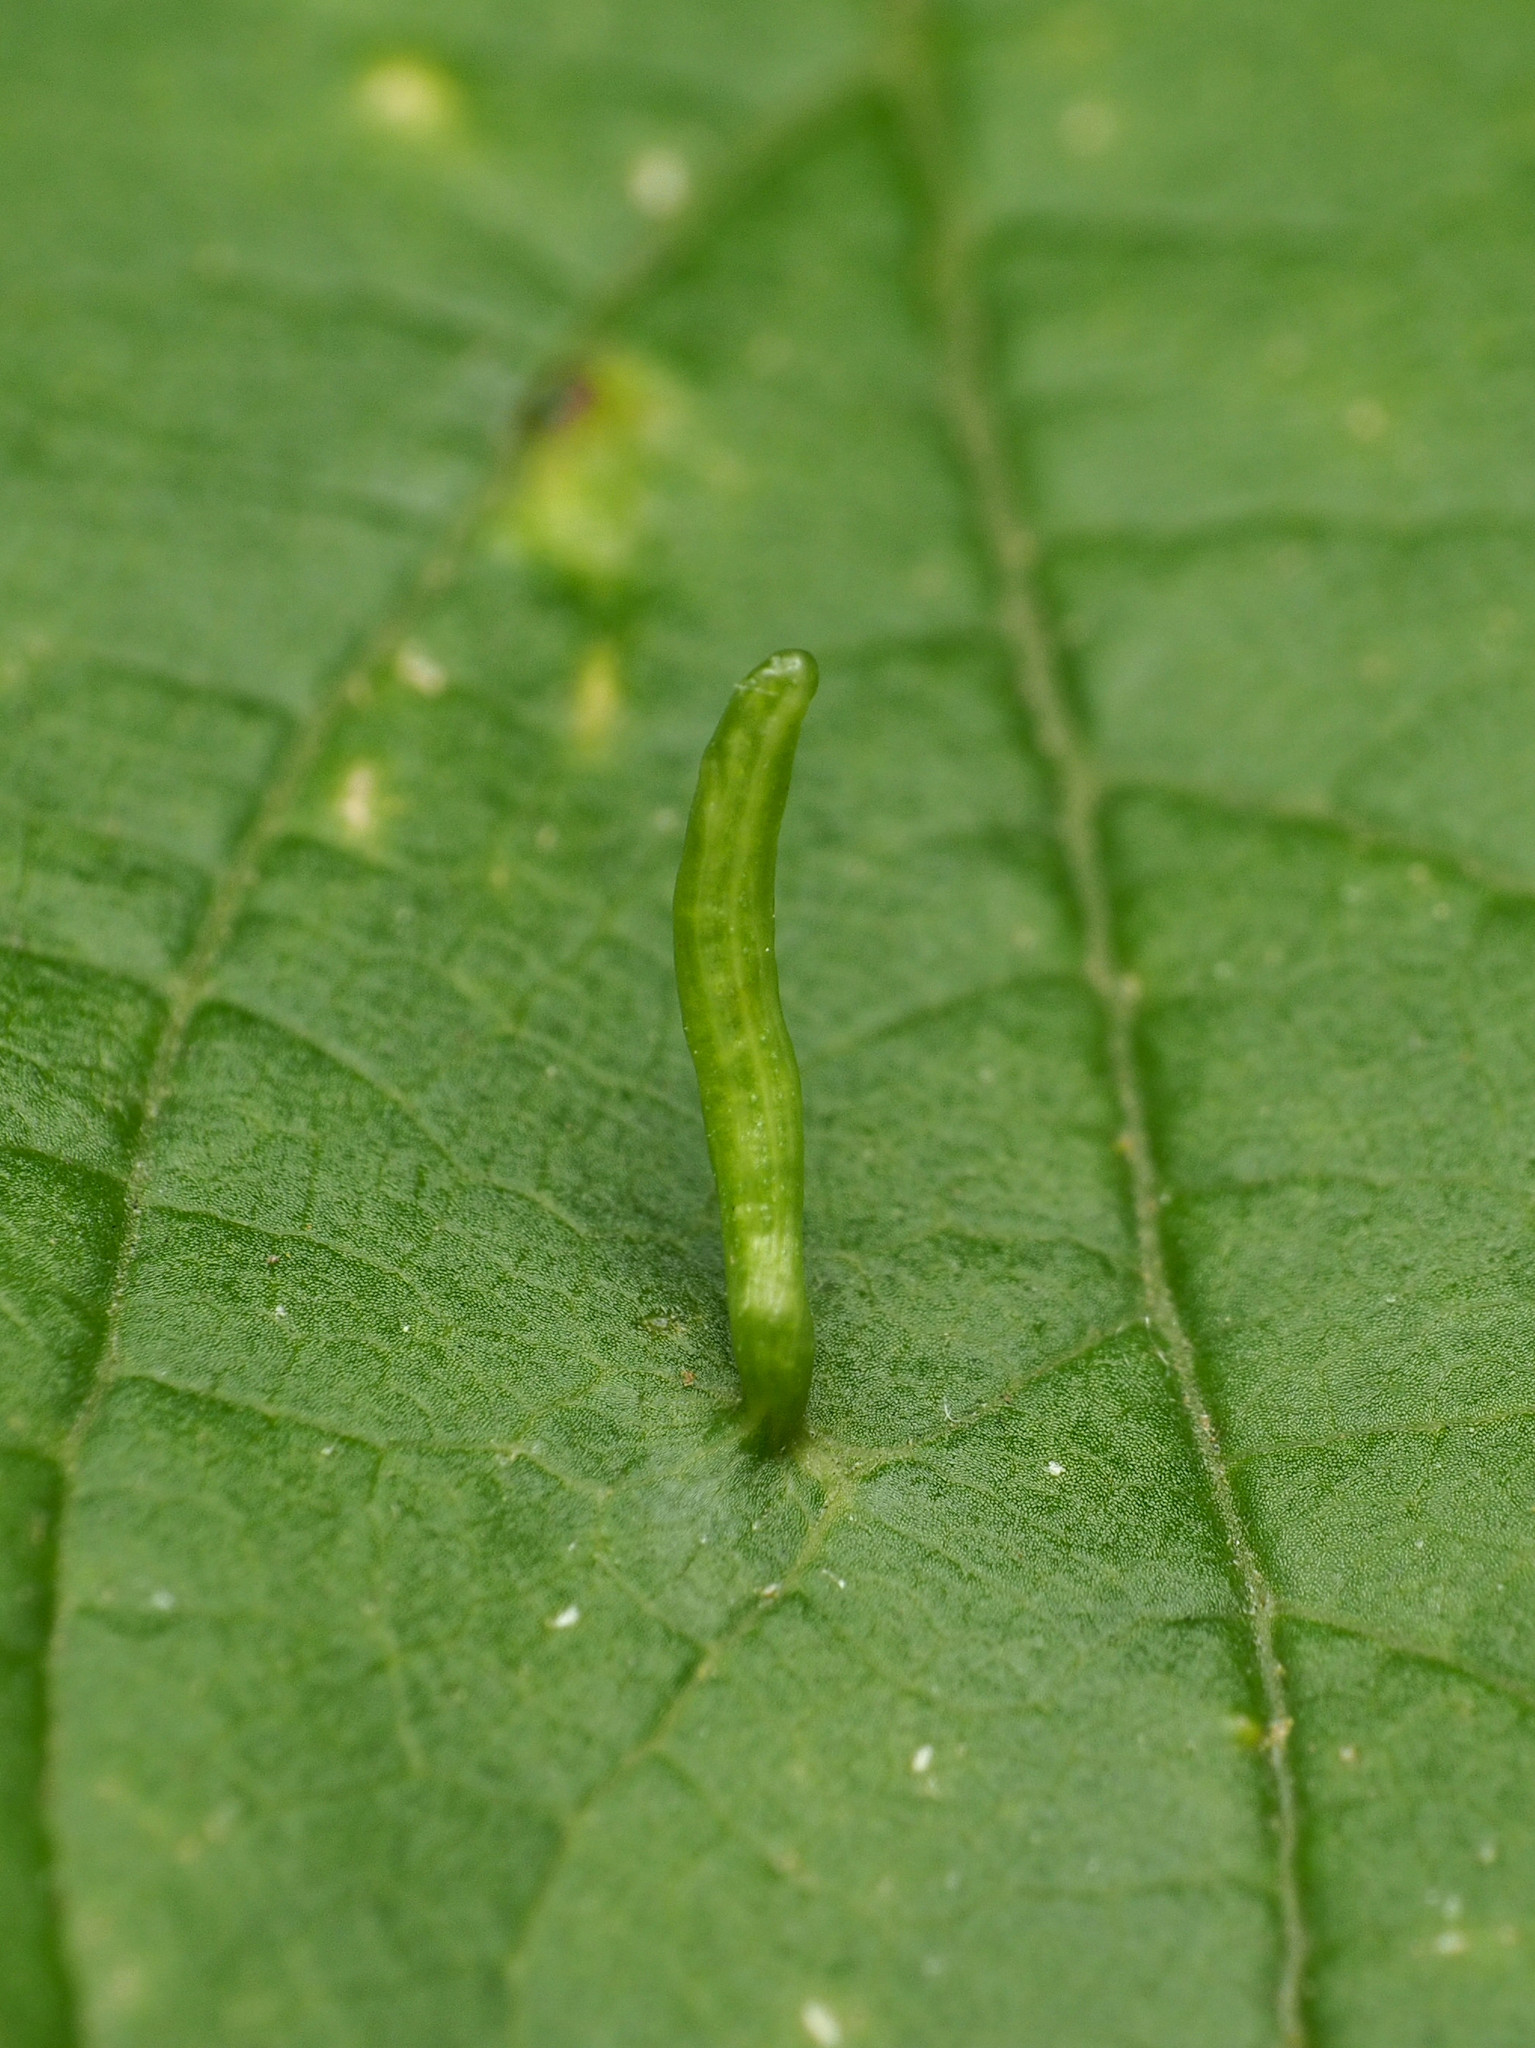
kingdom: Animalia
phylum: Arthropoda
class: Arachnida
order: Trombidiformes
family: Eriophyidae
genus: Aceria
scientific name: Aceria
